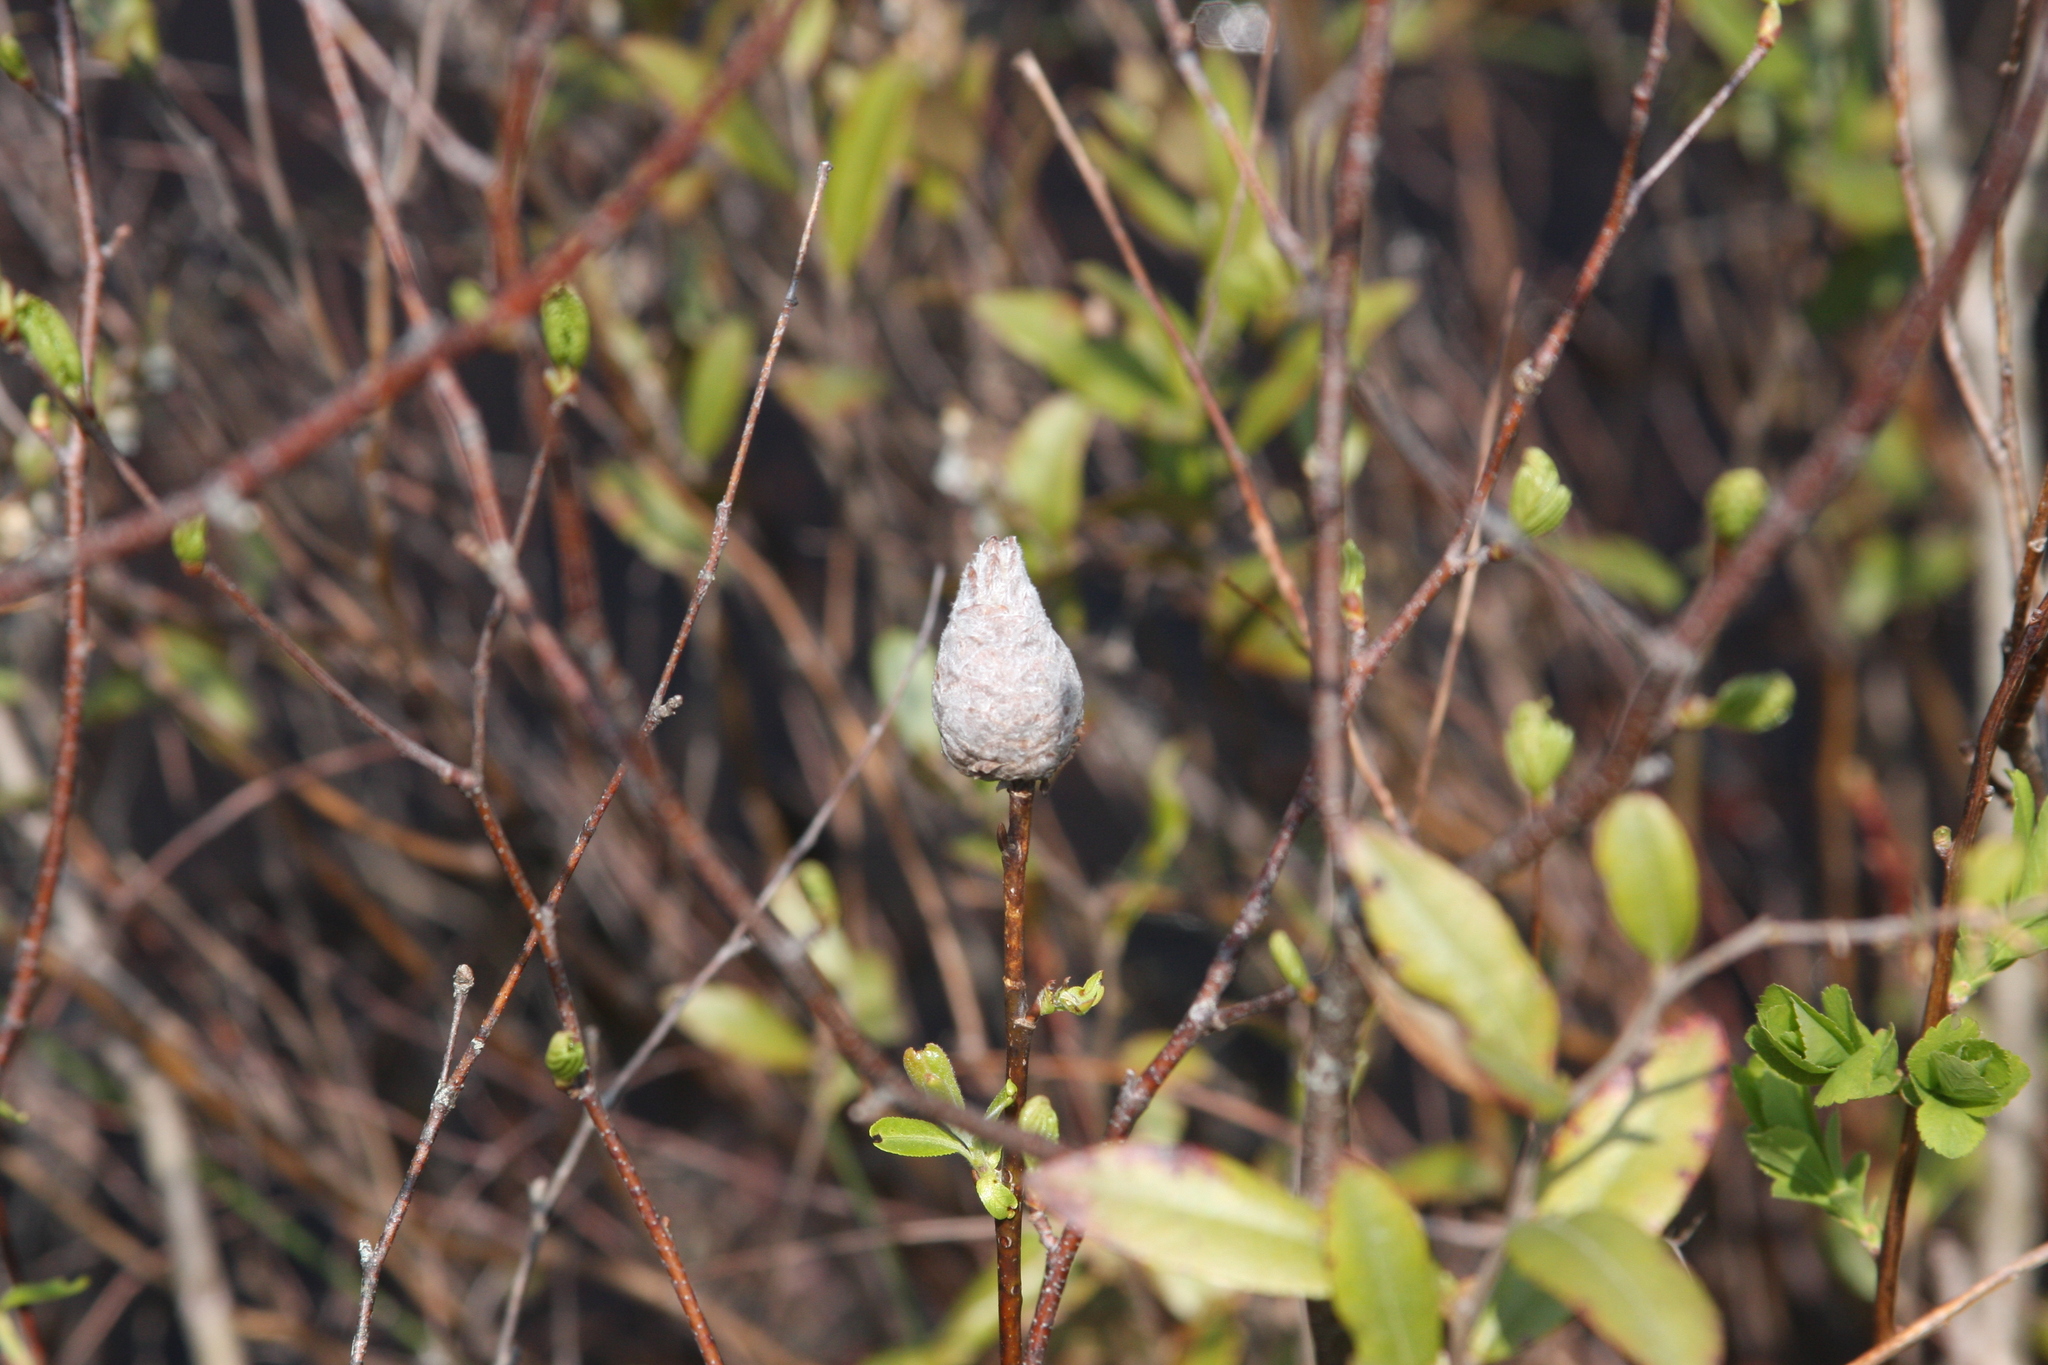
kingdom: Animalia
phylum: Arthropoda
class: Insecta
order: Diptera
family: Cecidomyiidae
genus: Rabdophaga
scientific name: Rabdophaga strobiloides
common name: Willow pinecone gall midge
